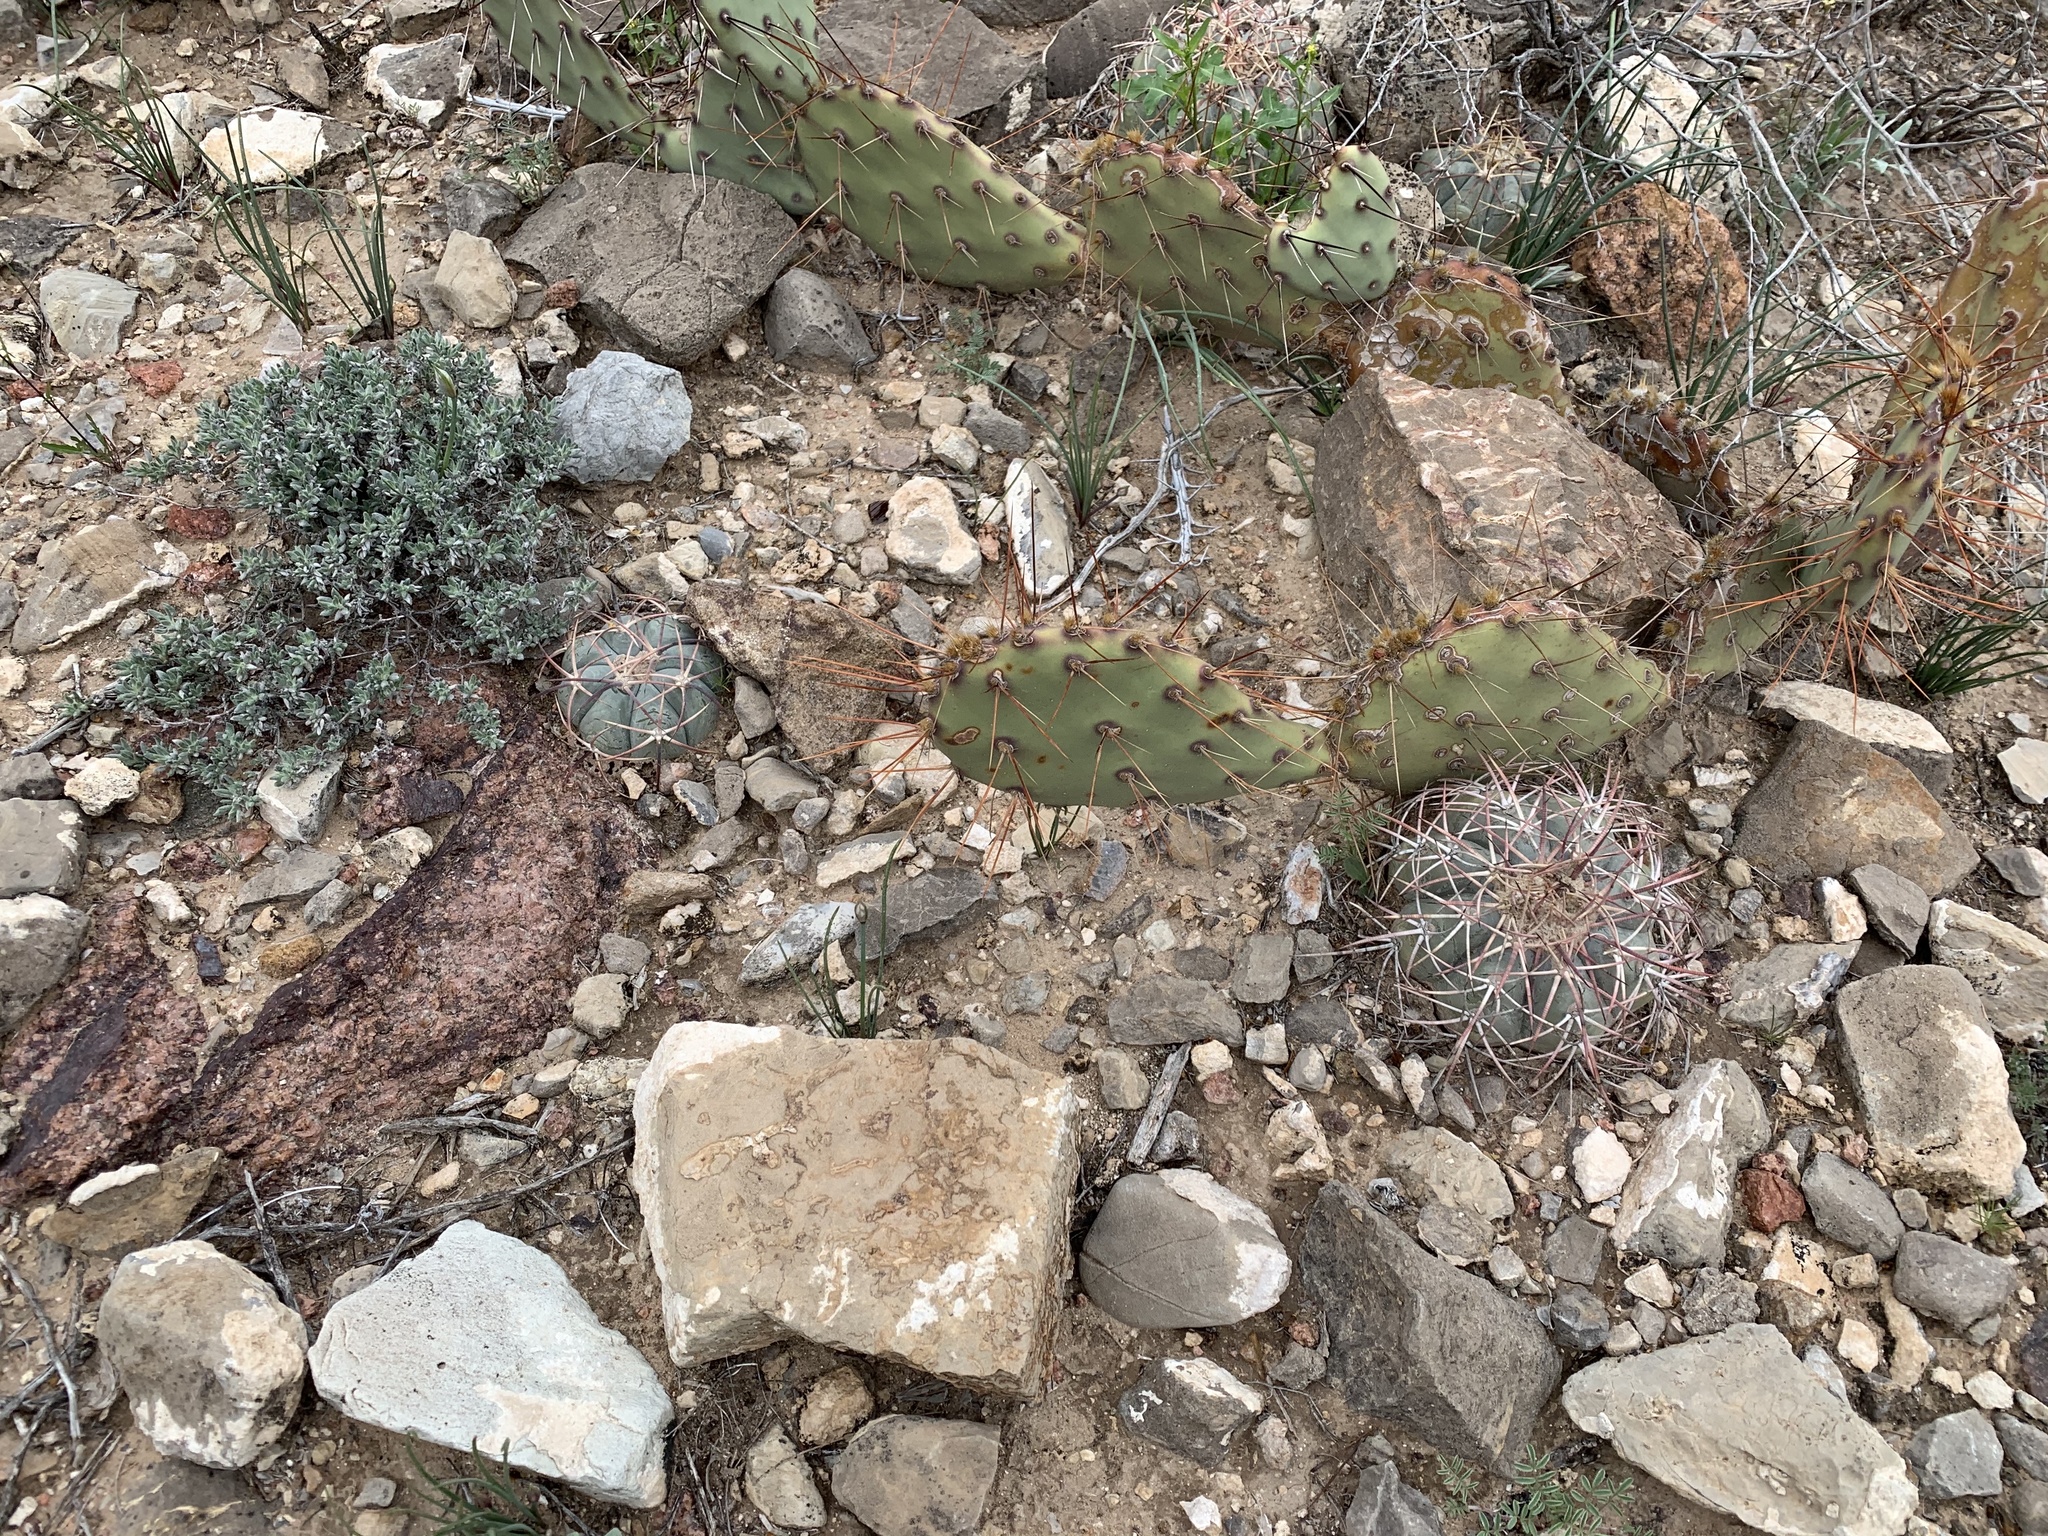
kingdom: Plantae
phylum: Tracheophyta
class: Magnoliopsida
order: Caryophyllales
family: Cactaceae
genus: Echinocactus
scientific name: Echinocactus horizonthalonius
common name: Devilshead
